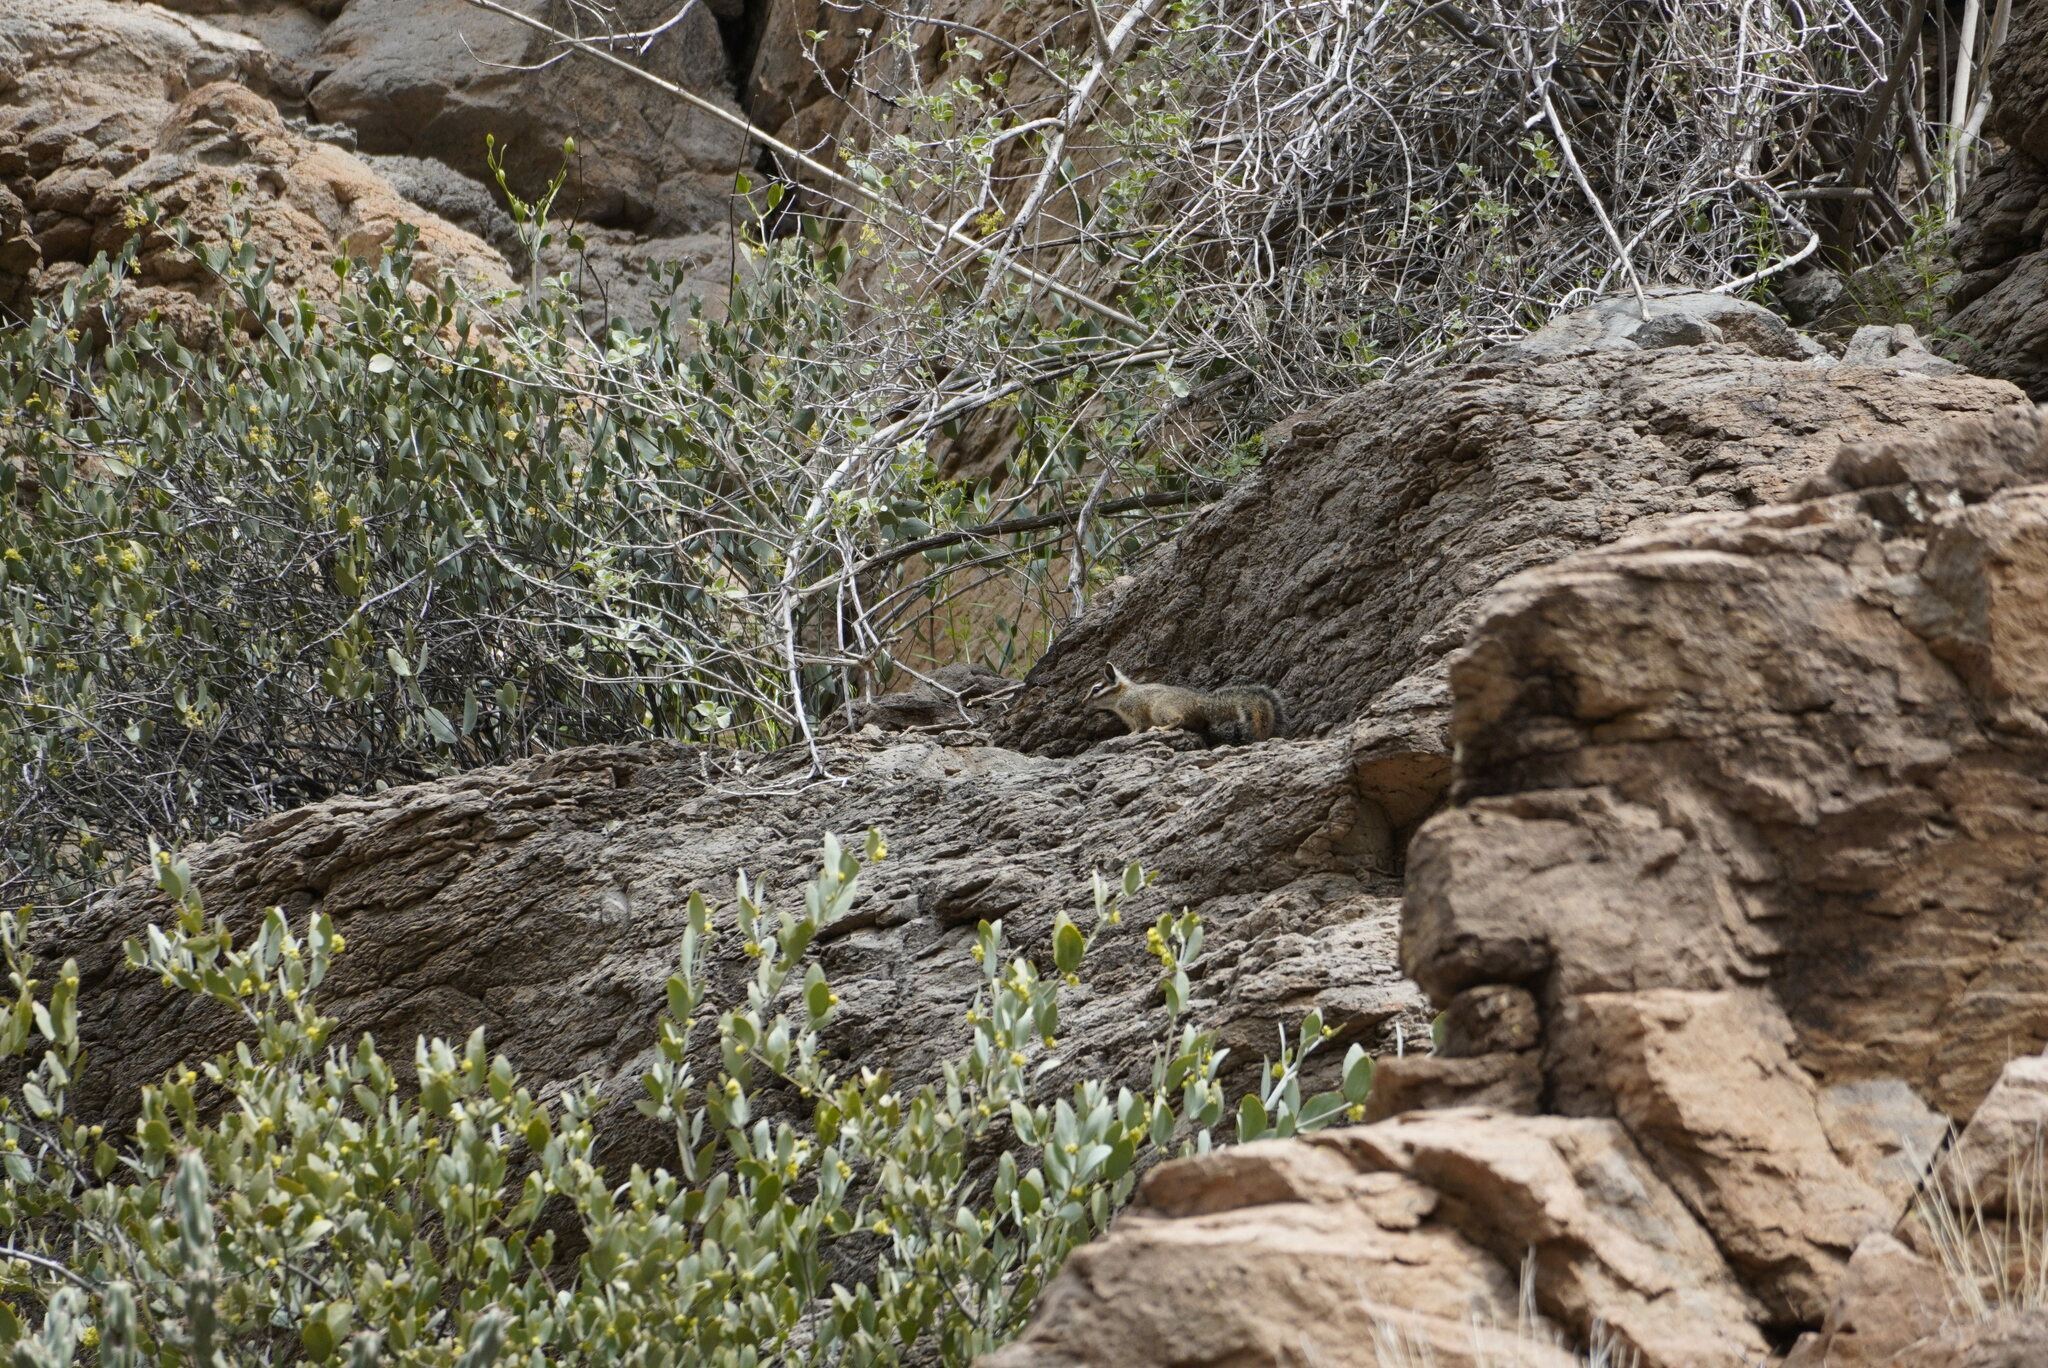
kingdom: Animalia
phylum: Chordata
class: Mammalia
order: Rodentia
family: Sciuridae
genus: Tamias
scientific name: Tamias dorsalis
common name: Cliff chipmunk
